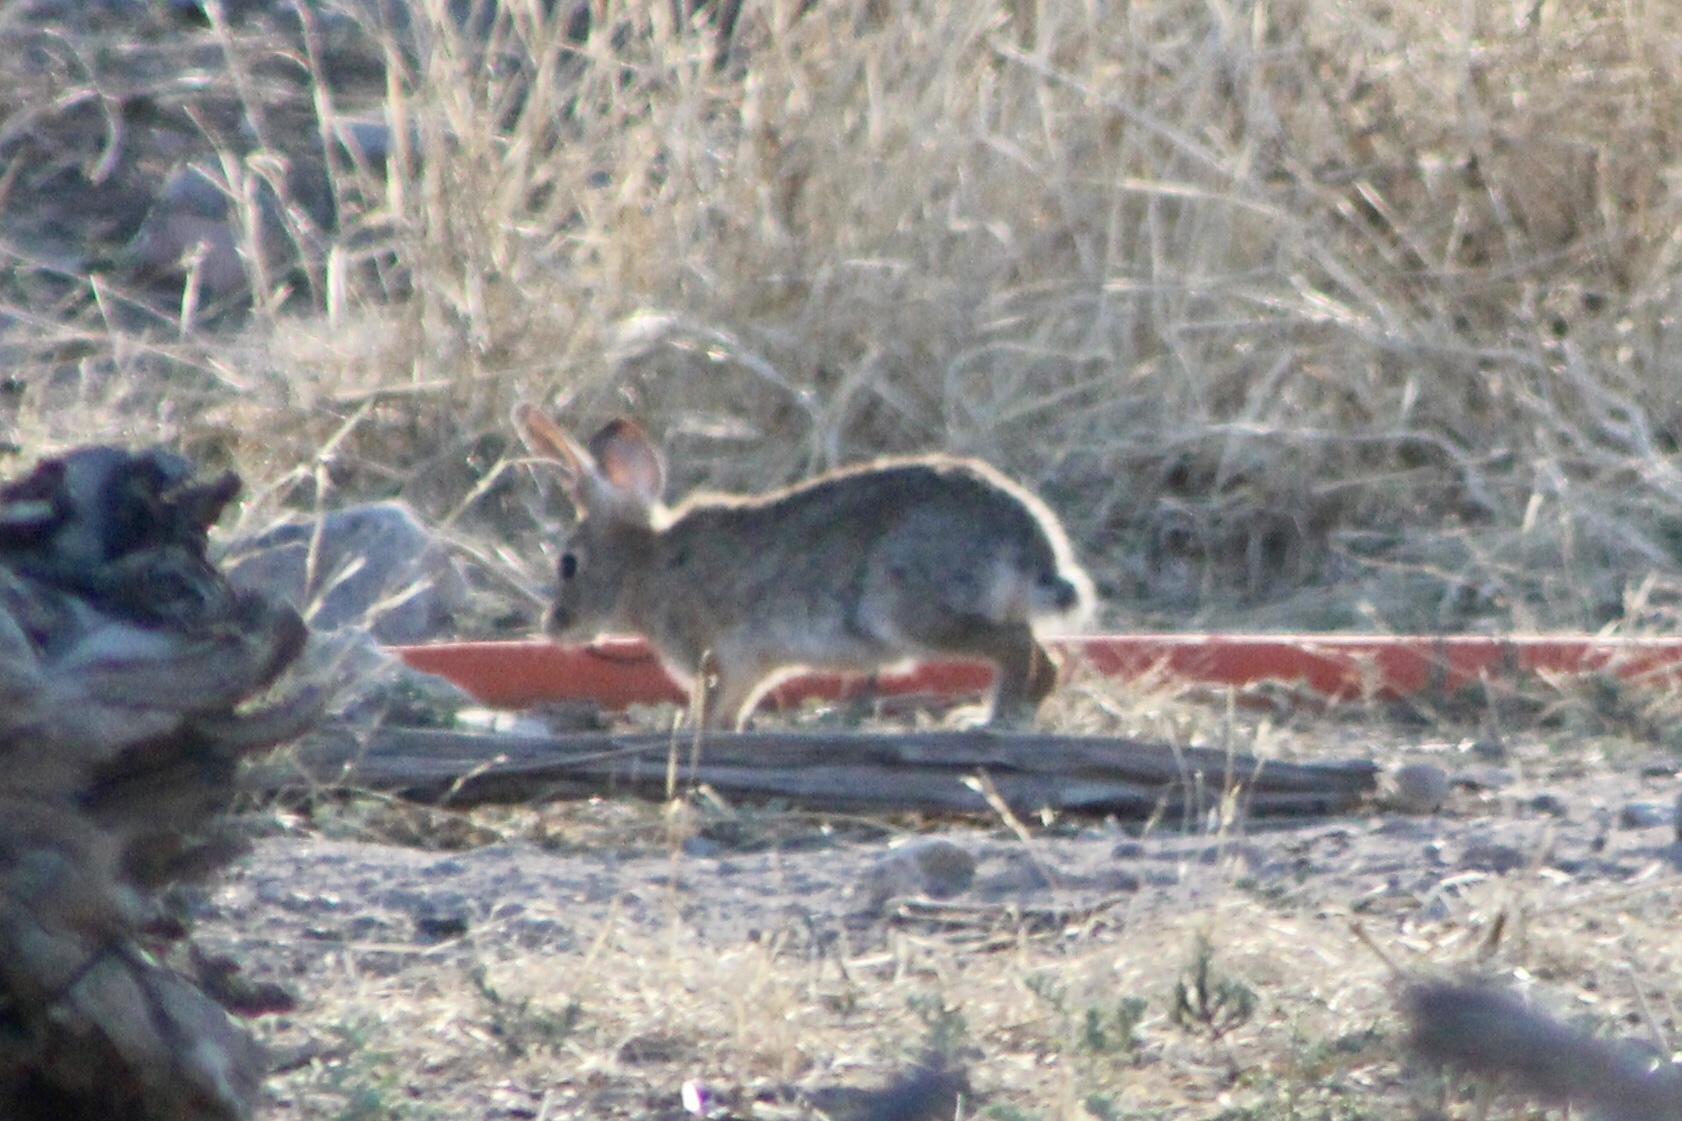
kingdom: Animalia
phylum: Chordata
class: Mammalia
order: Lagomorpha
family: Leporidae
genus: Sylvilagus
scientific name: Sylvilagus audubonii
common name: Desert cottontail
